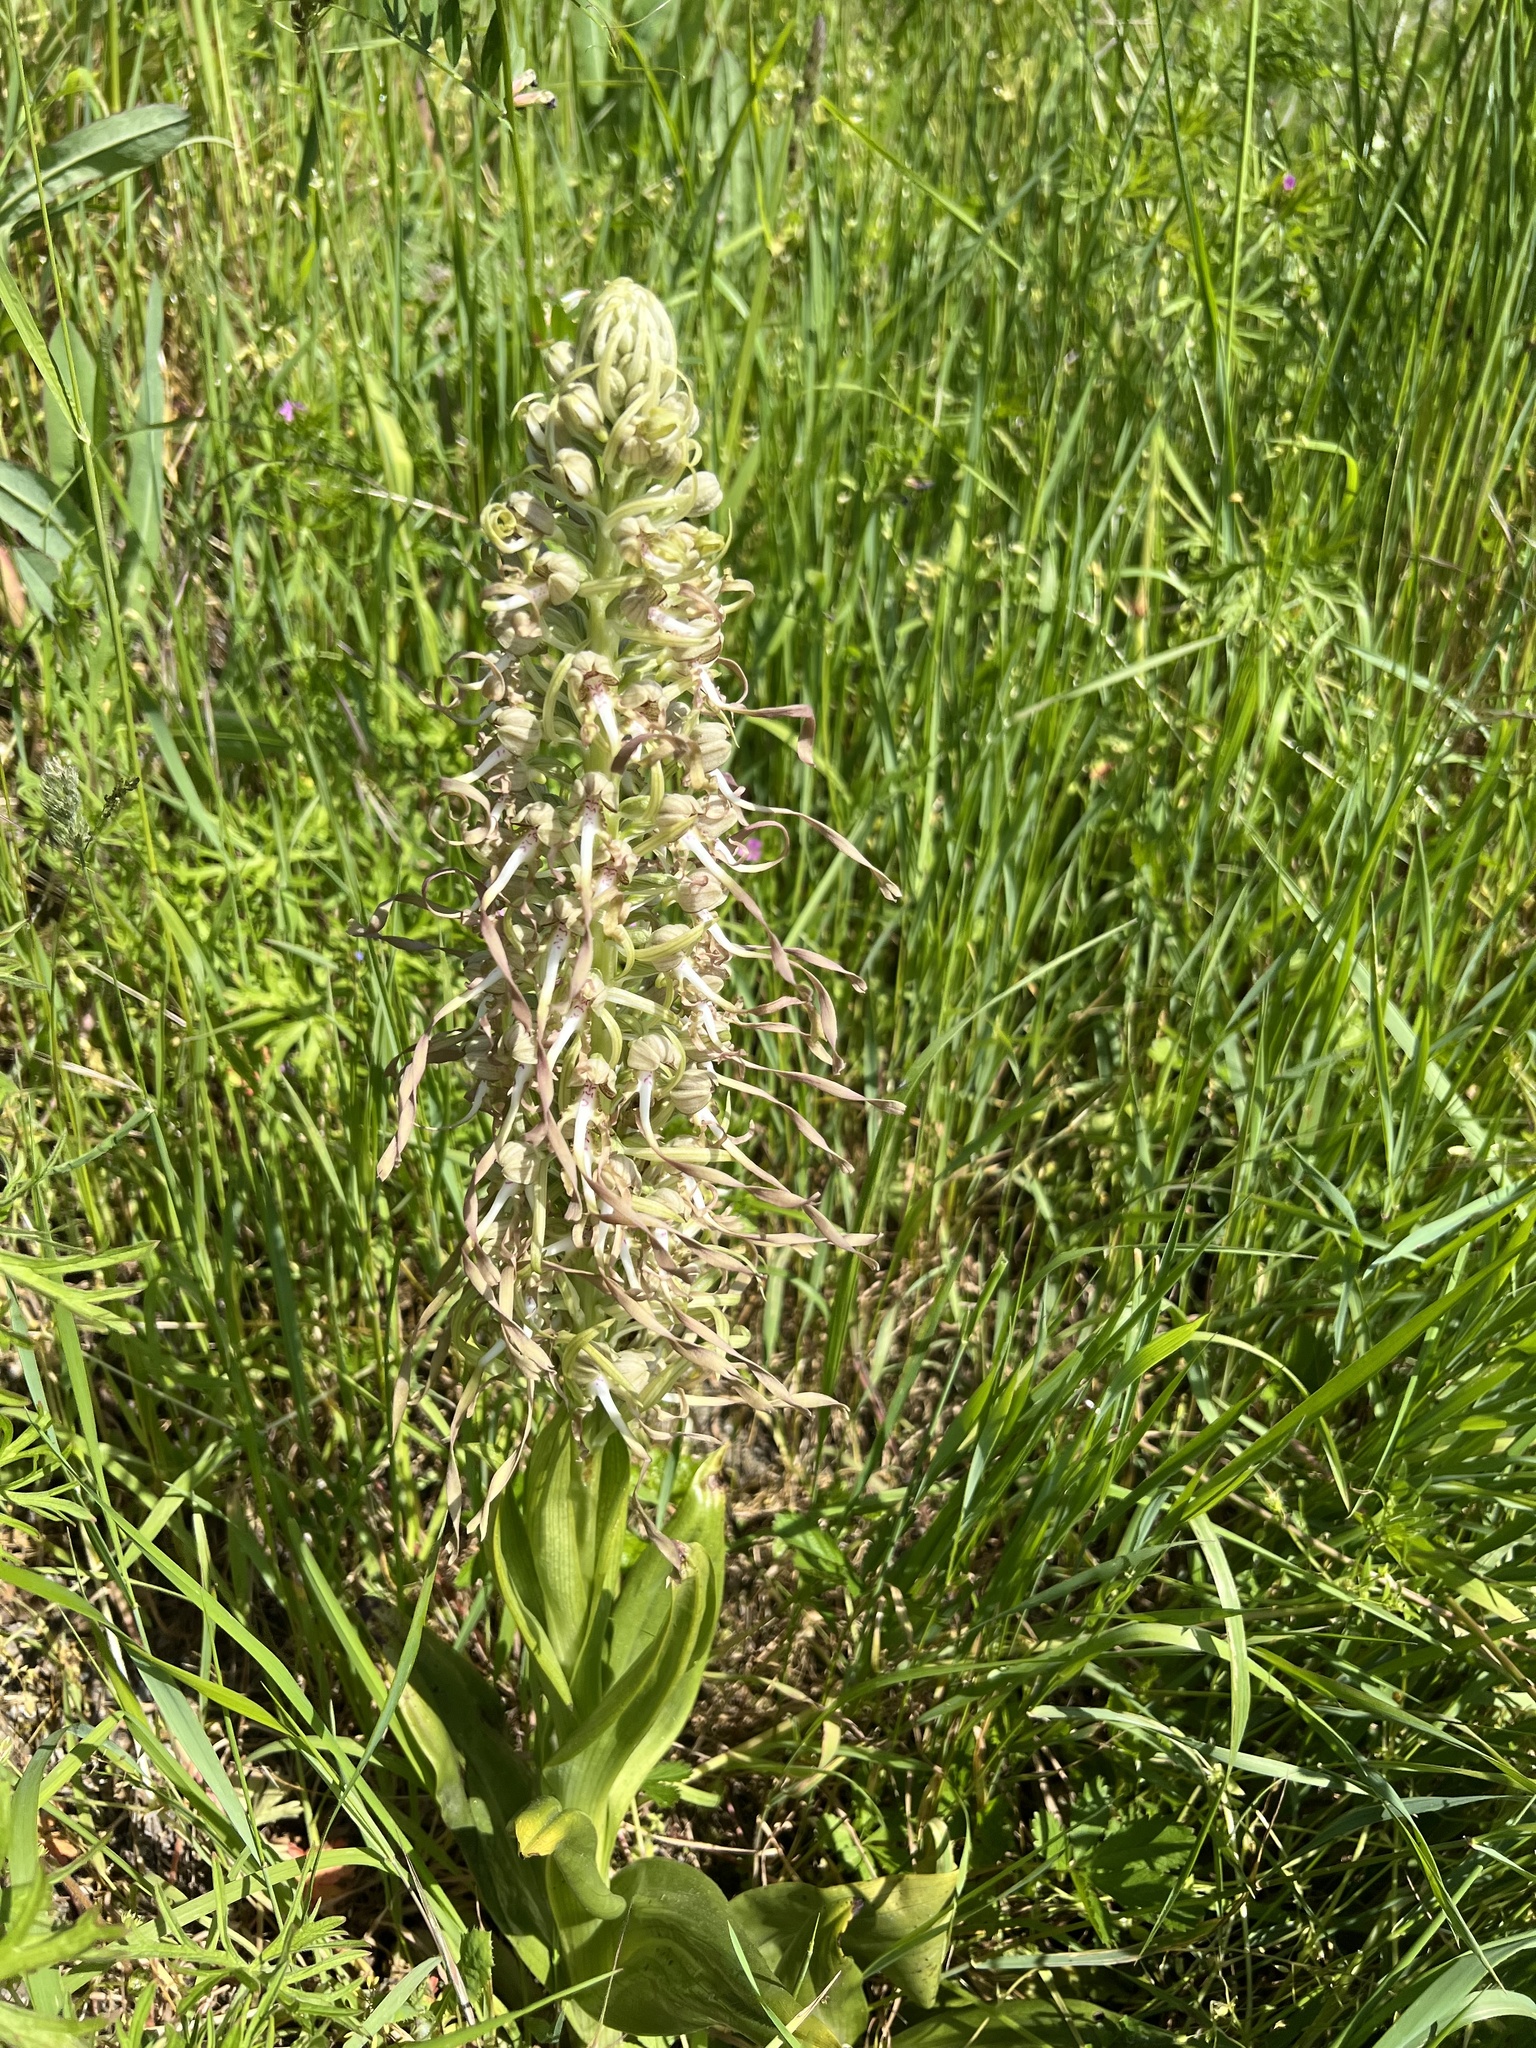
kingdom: Plantae
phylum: Tracheophyta
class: Liliopsida
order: Asparagales
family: Orchidaceae
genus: Himantoglossum
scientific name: Himantoglossum hircinum
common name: Lizard orchid
